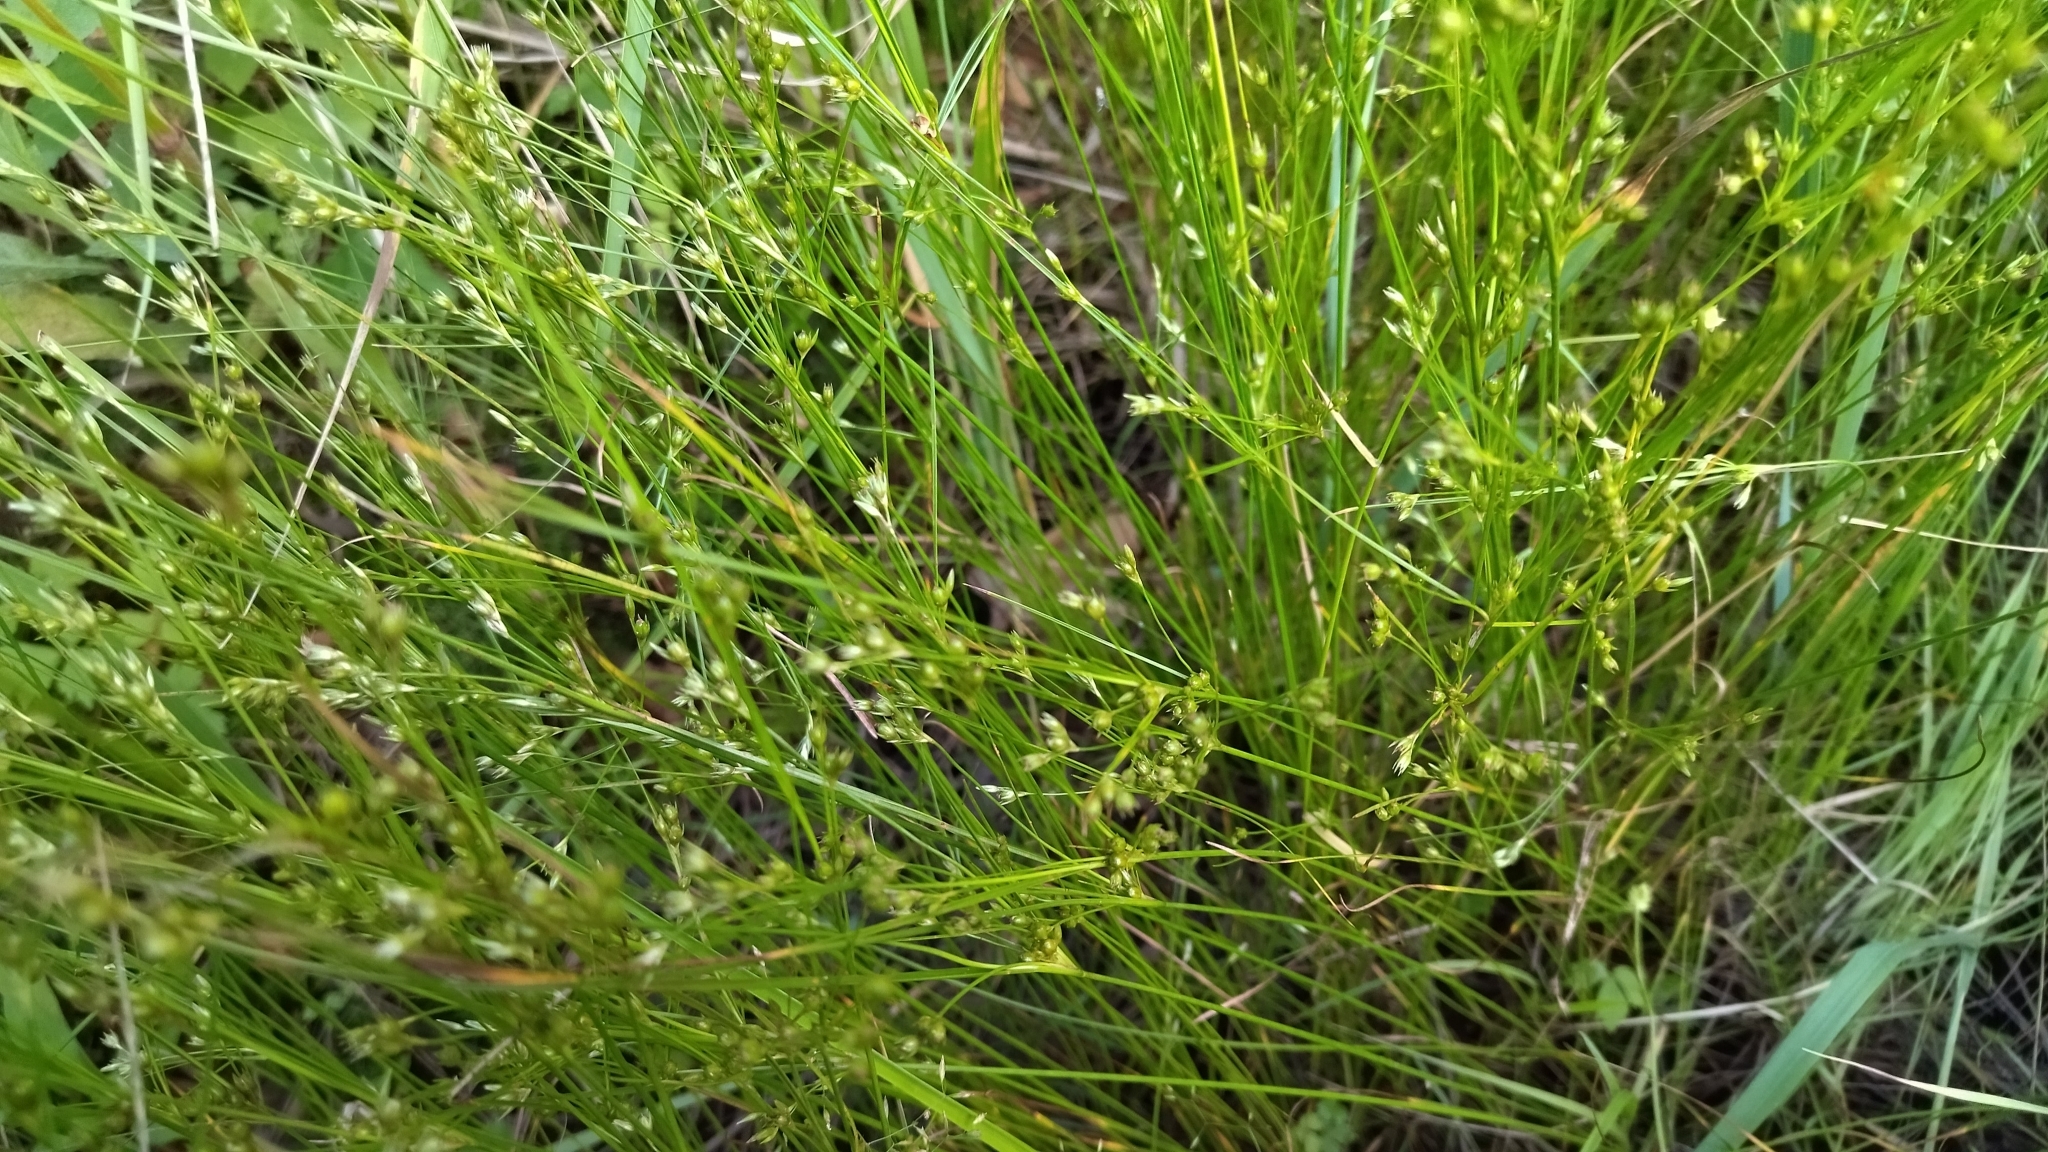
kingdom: Plantae
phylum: Tracheophyta
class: Liliopsida
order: Poales
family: Juncaceae
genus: Juncus
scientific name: Juncus tenuis
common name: Slender rush
